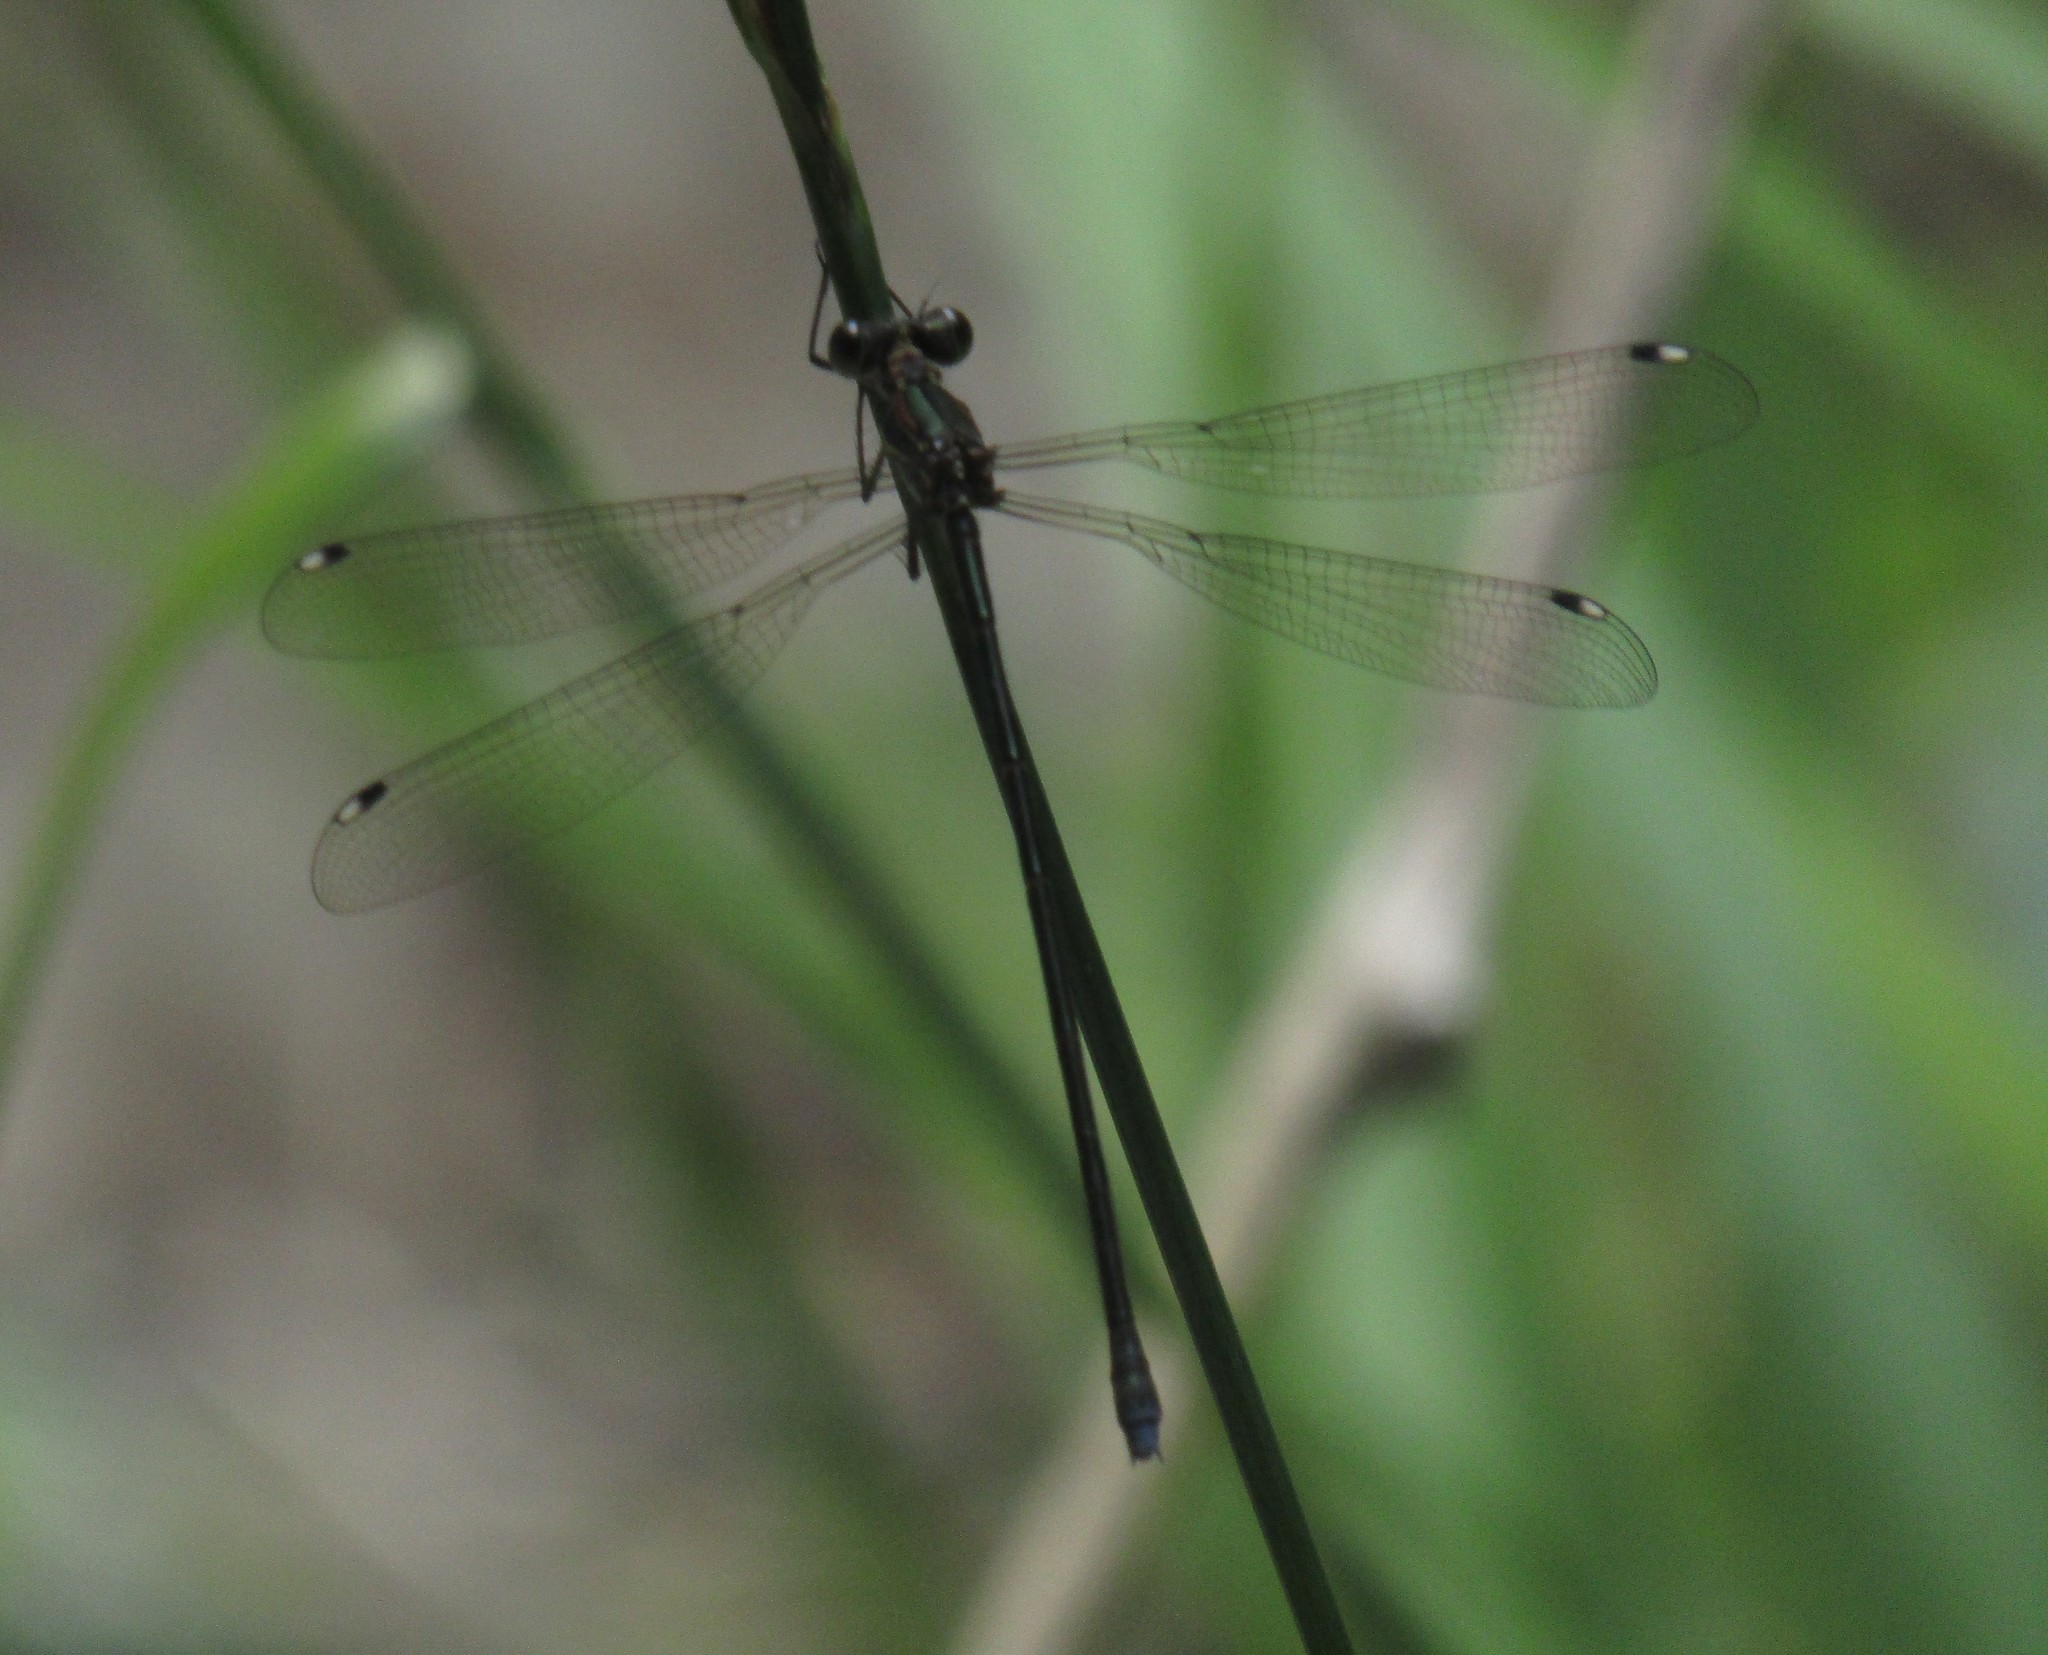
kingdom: Animalia
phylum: Arthropoda
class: Insecta
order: Odonata
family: Synlestidae
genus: Chlorolestes
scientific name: Chlorolestes tessellatus
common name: Forest malachite
